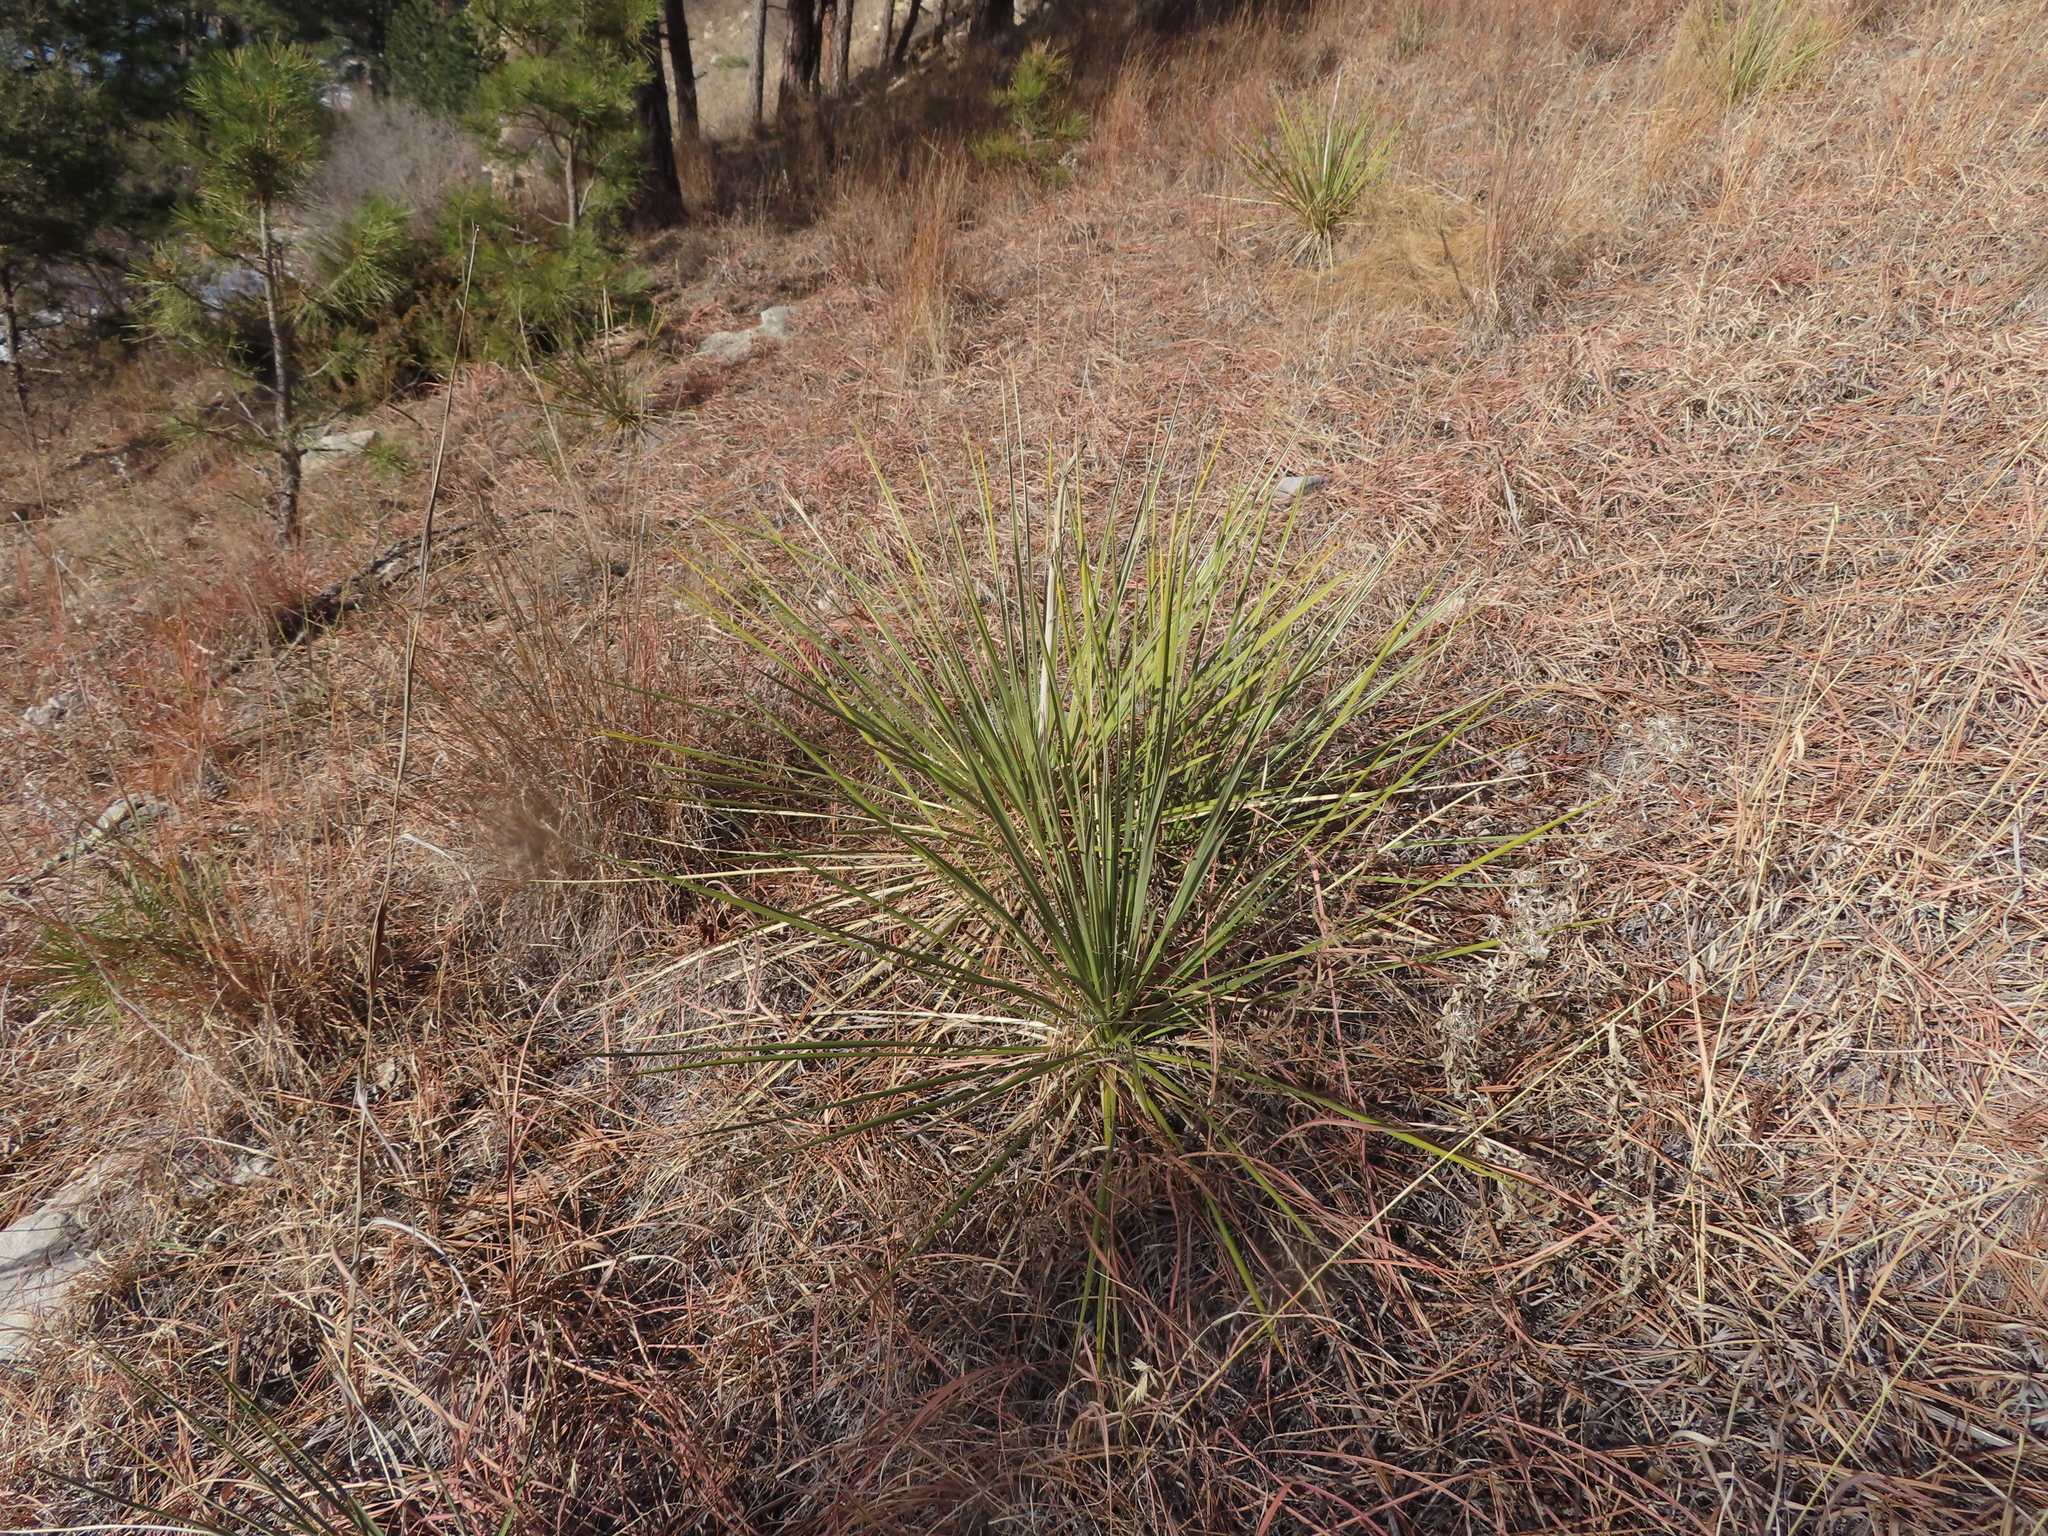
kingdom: Plantae
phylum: Tracheophyta
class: Liliopsida
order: Asparagales
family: Asparagaceae
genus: Yucca
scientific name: Yucca glauca
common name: Great plains yucca
